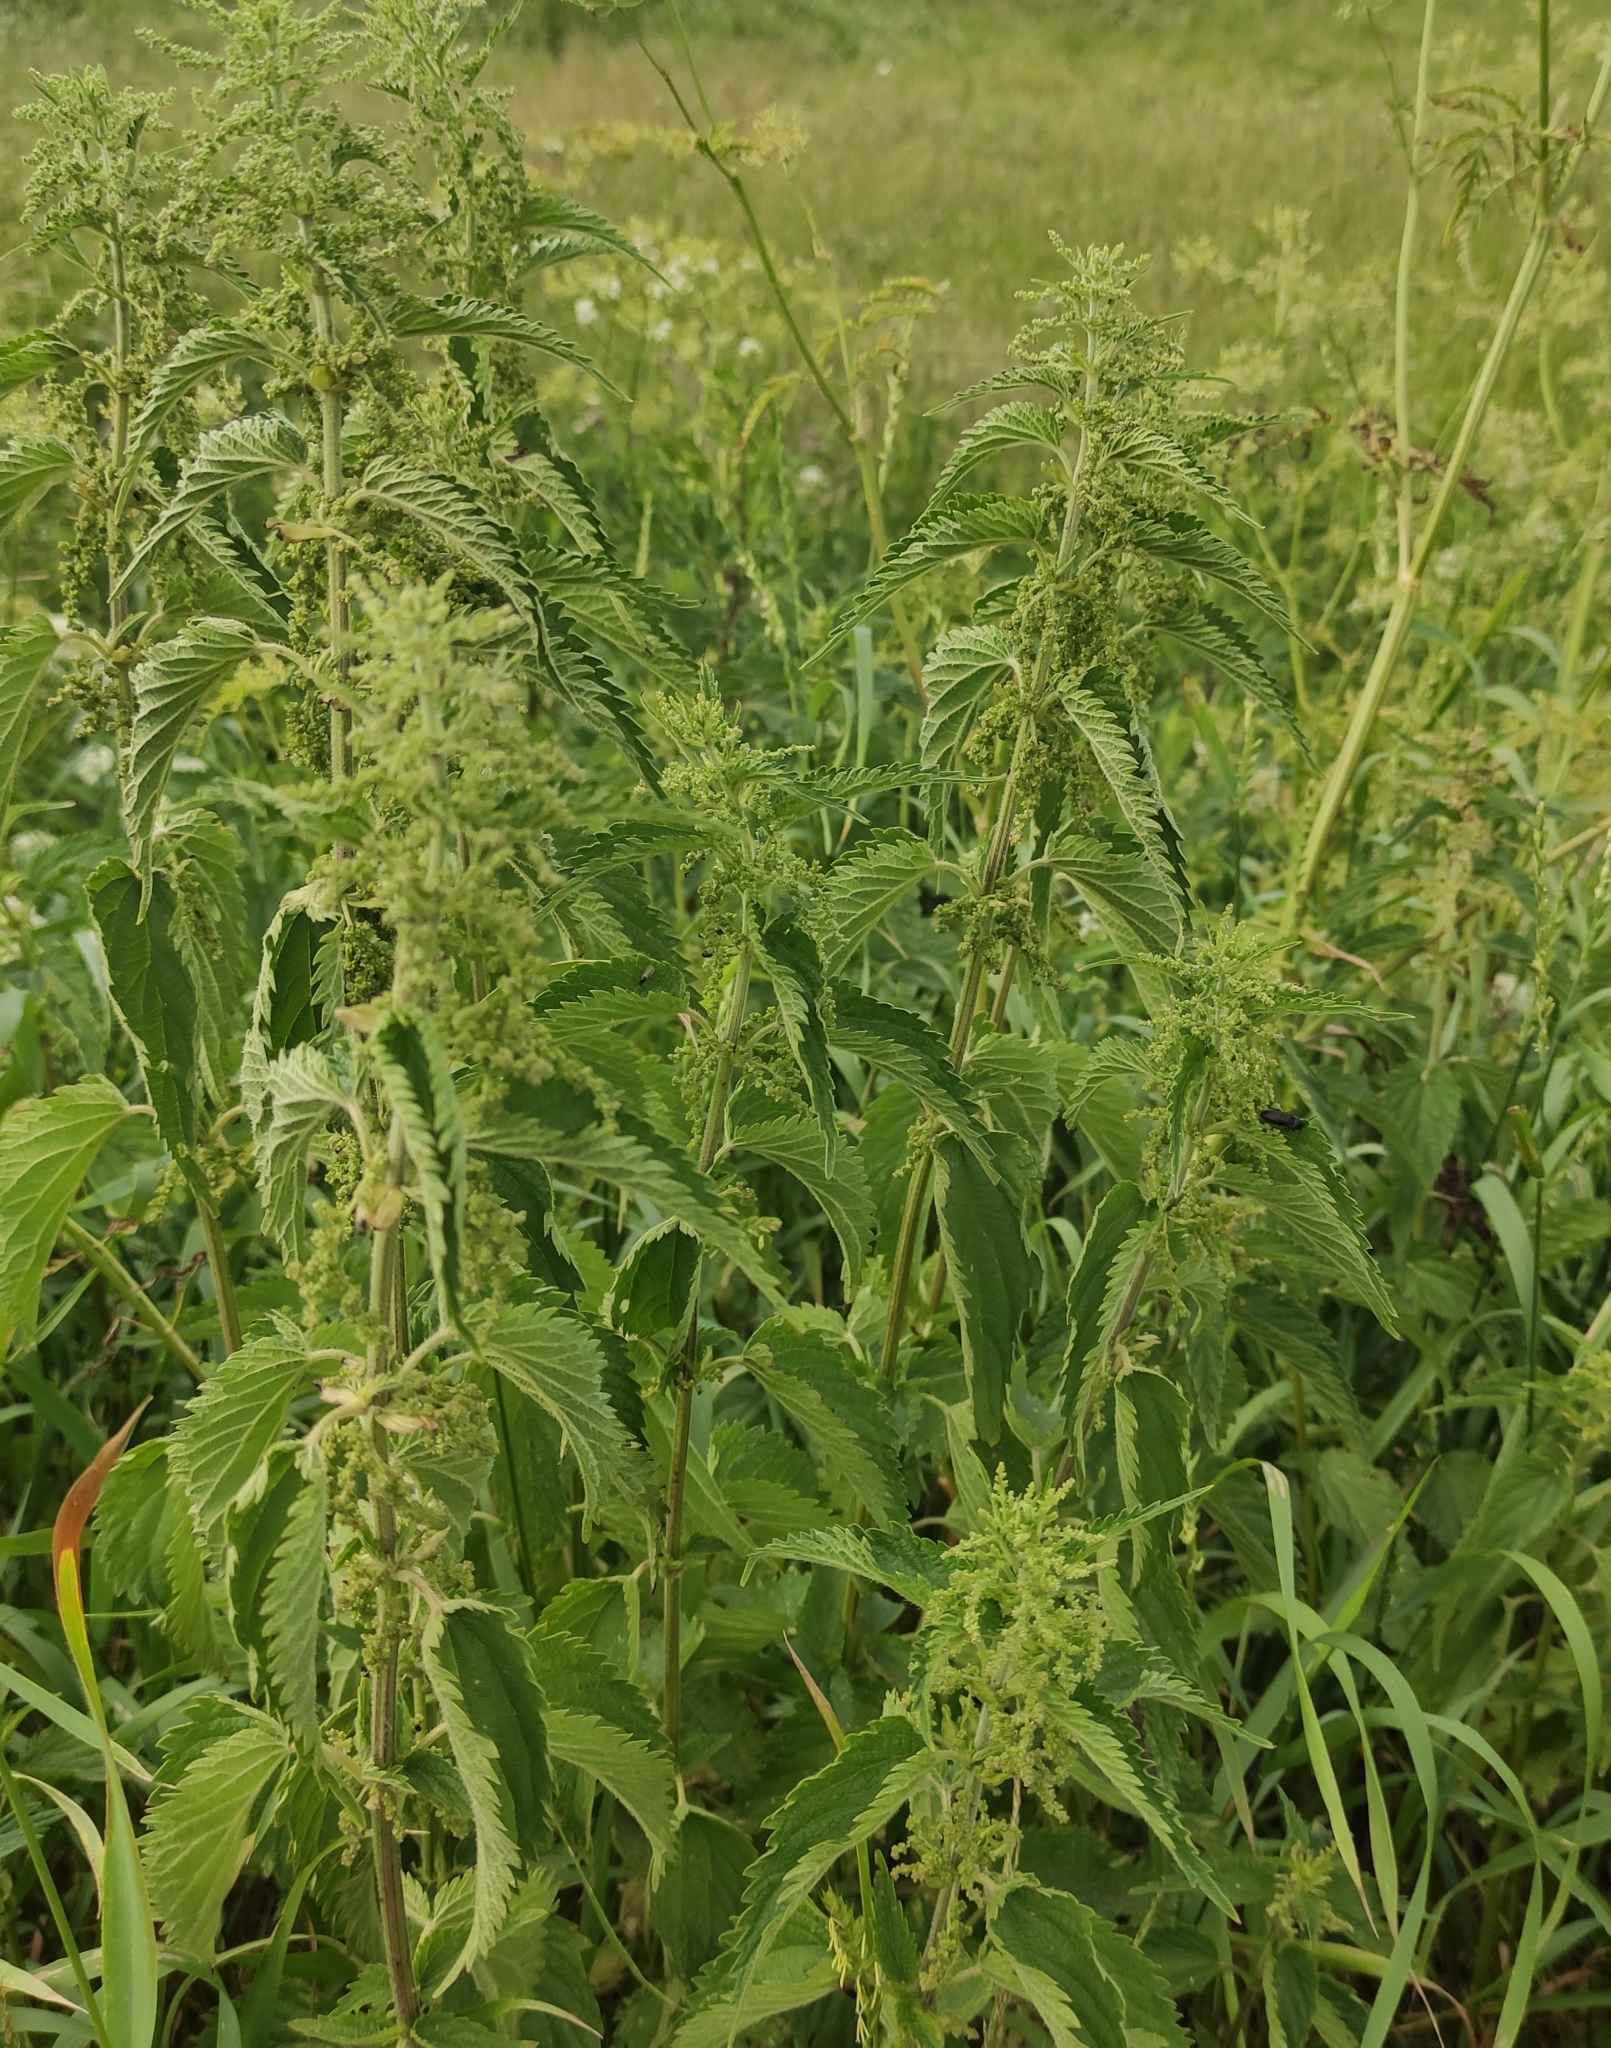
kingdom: Plantae
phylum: Tracheophyta
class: Magnoliopsida
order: Rosales
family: Urticaceae
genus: Urtica
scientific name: Urtica dioica
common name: Common nettle
